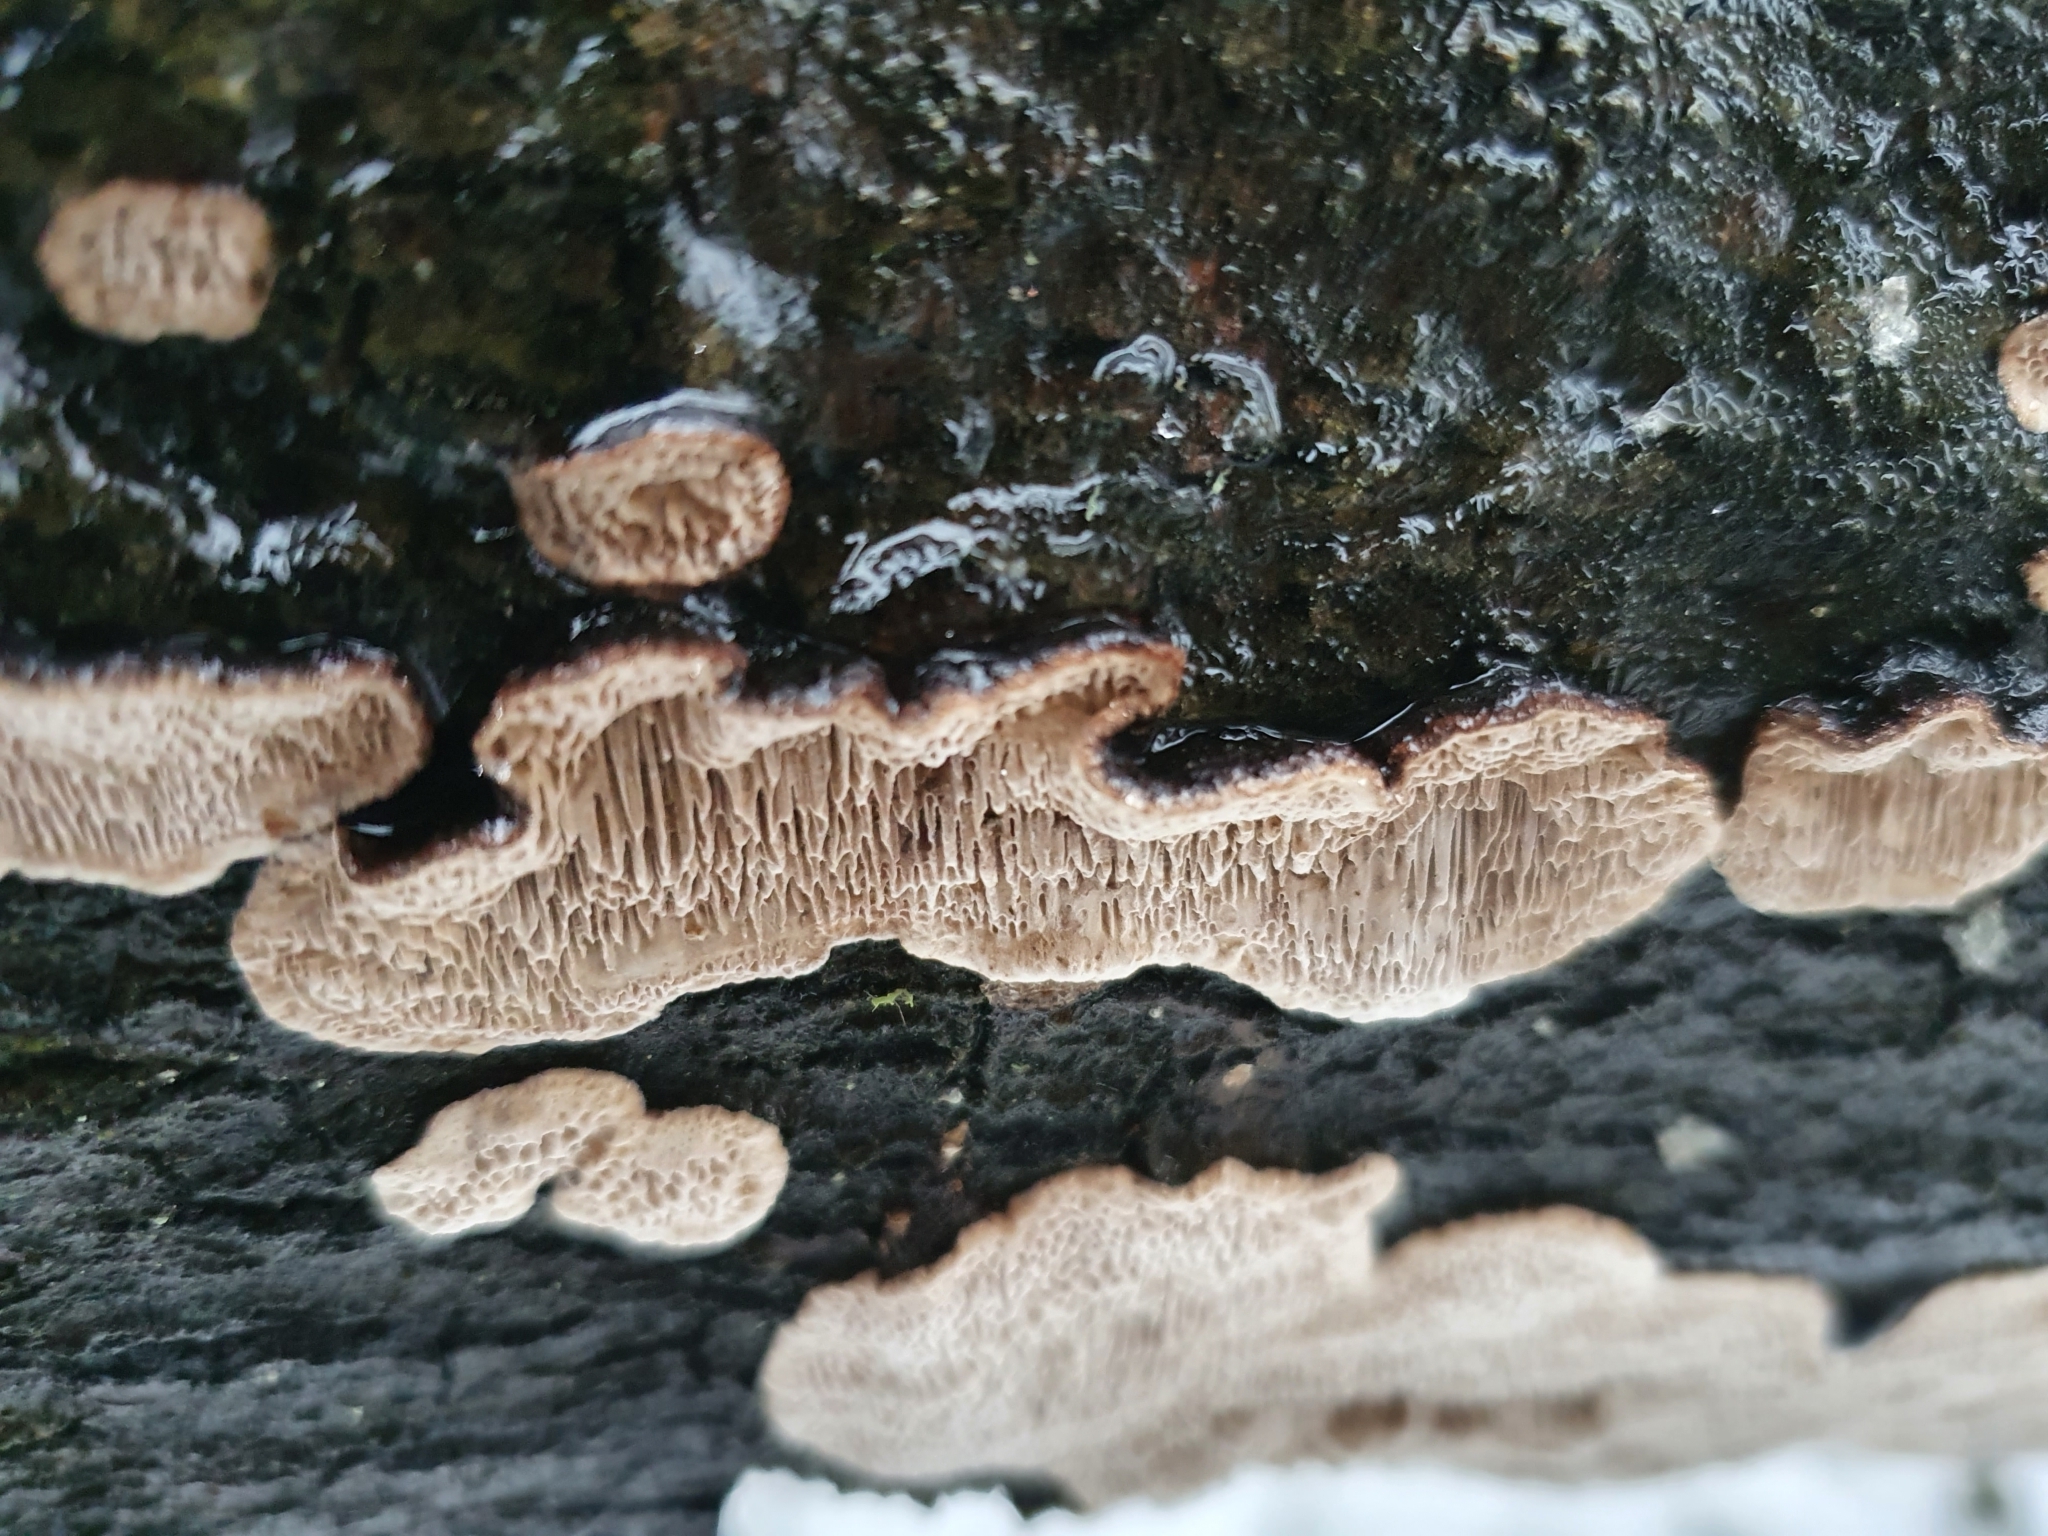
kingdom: Fungi
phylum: Basidiomycota
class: Agaricomycetes
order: Polyporales
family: Polyporaceae
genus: Podofomes
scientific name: Podofomes mollis
